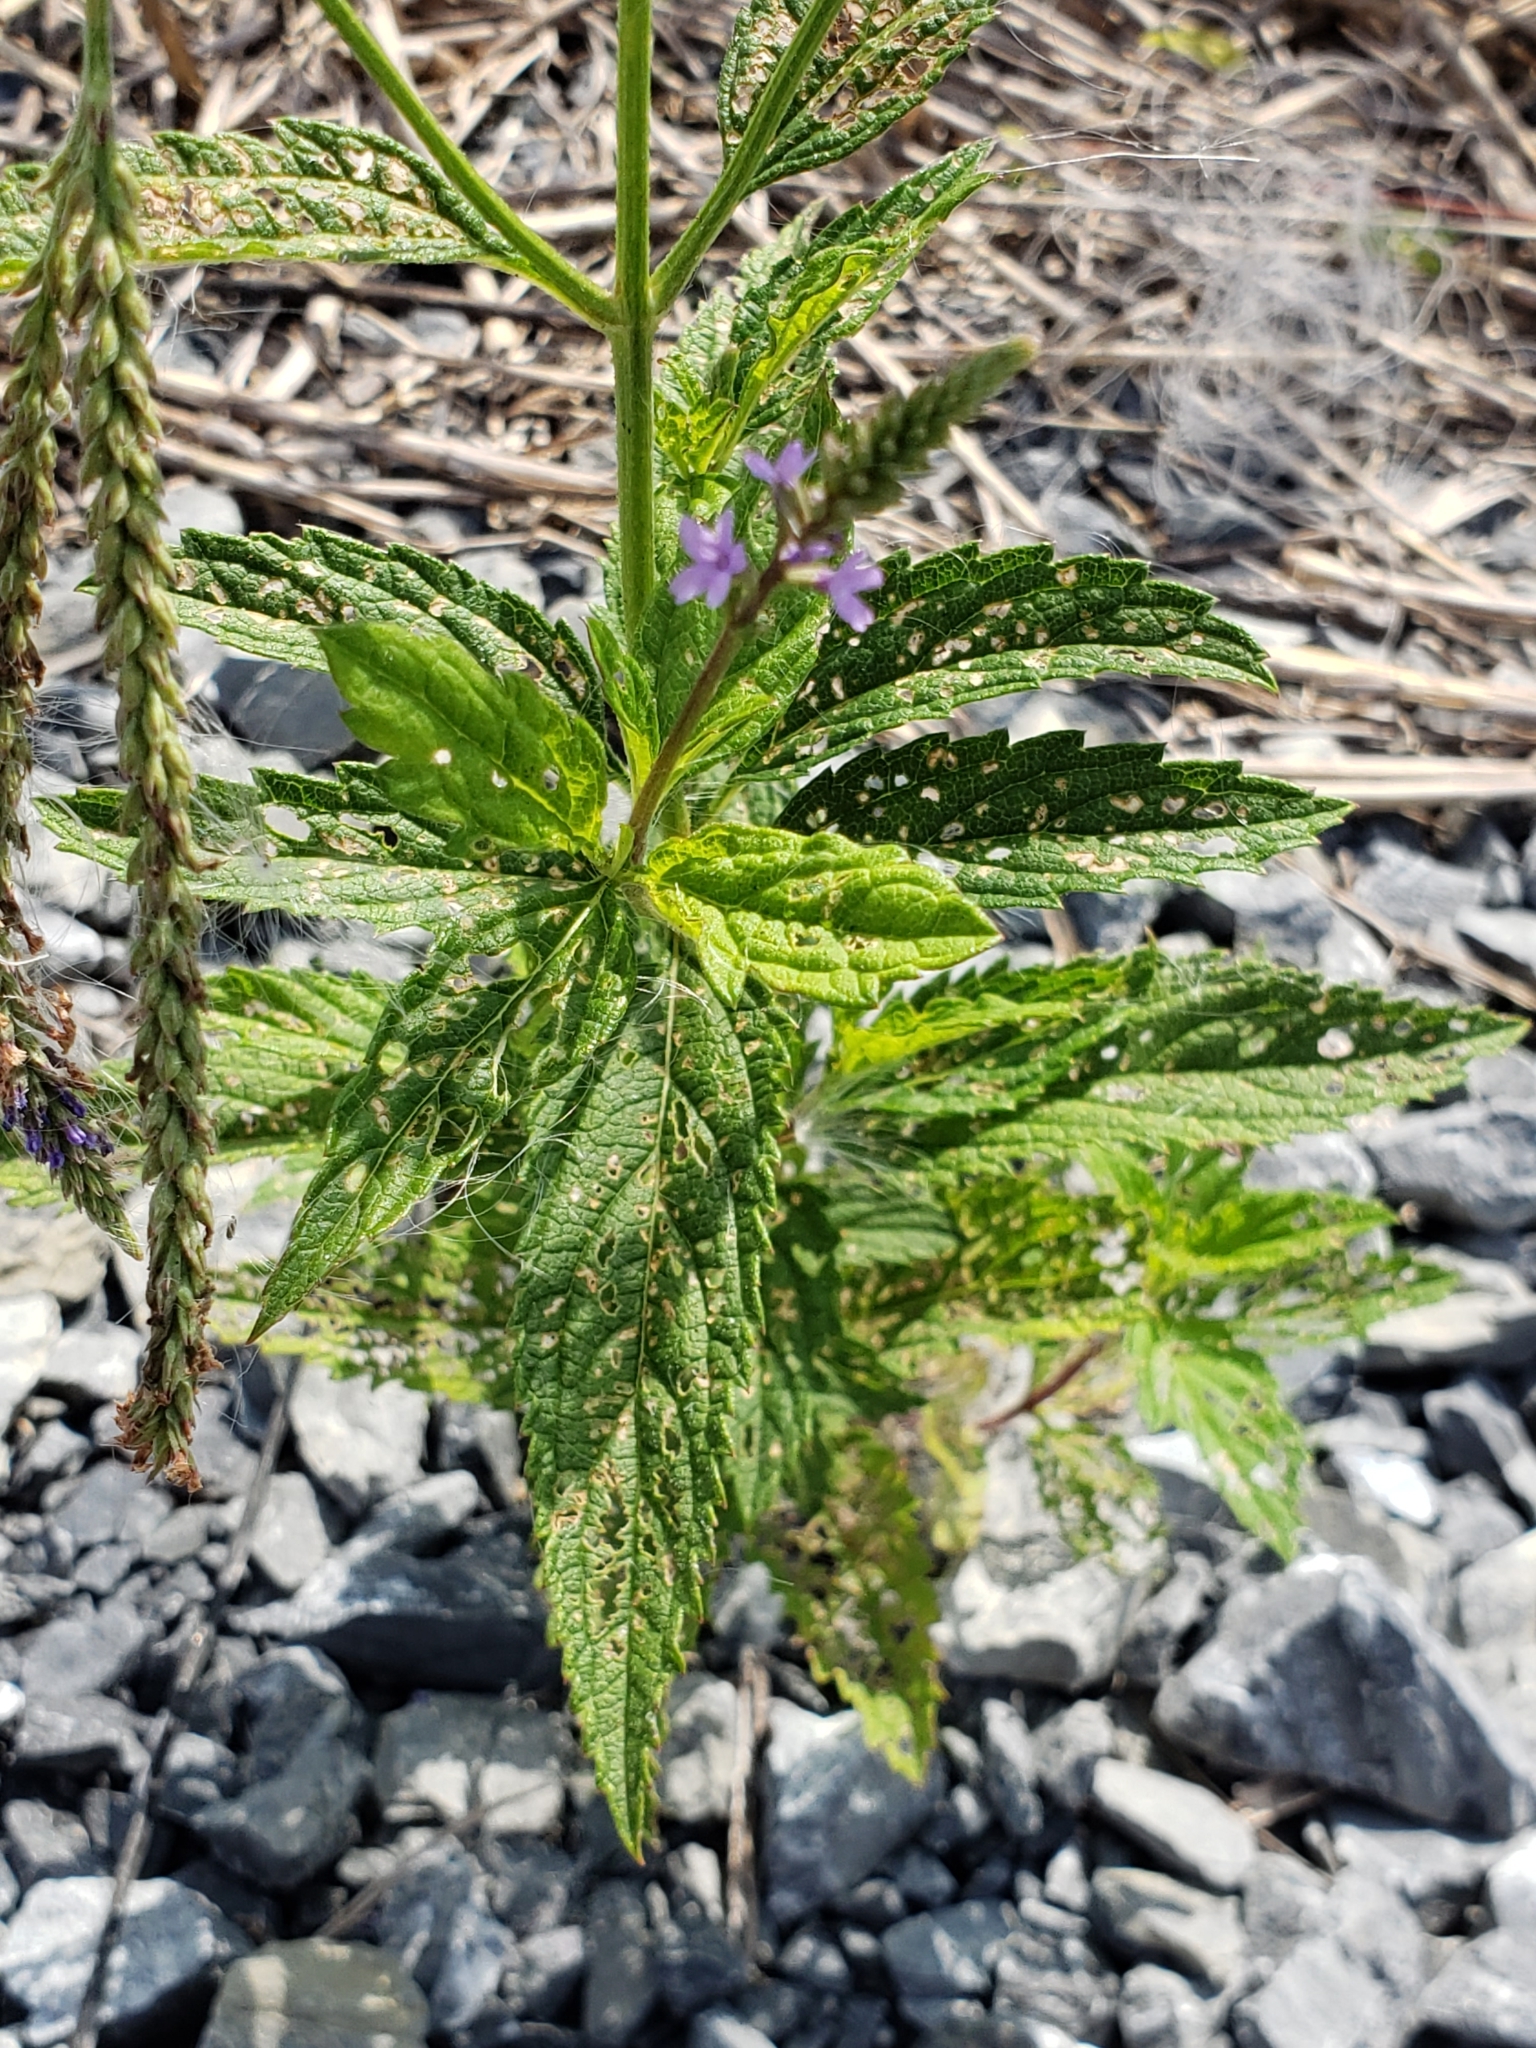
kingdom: Plantae
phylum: Tracheophyta
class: Magnoliopsida
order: Lamiales
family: Verbenaceae
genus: Verbena
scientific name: Verbena hastata
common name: American blue vervain
